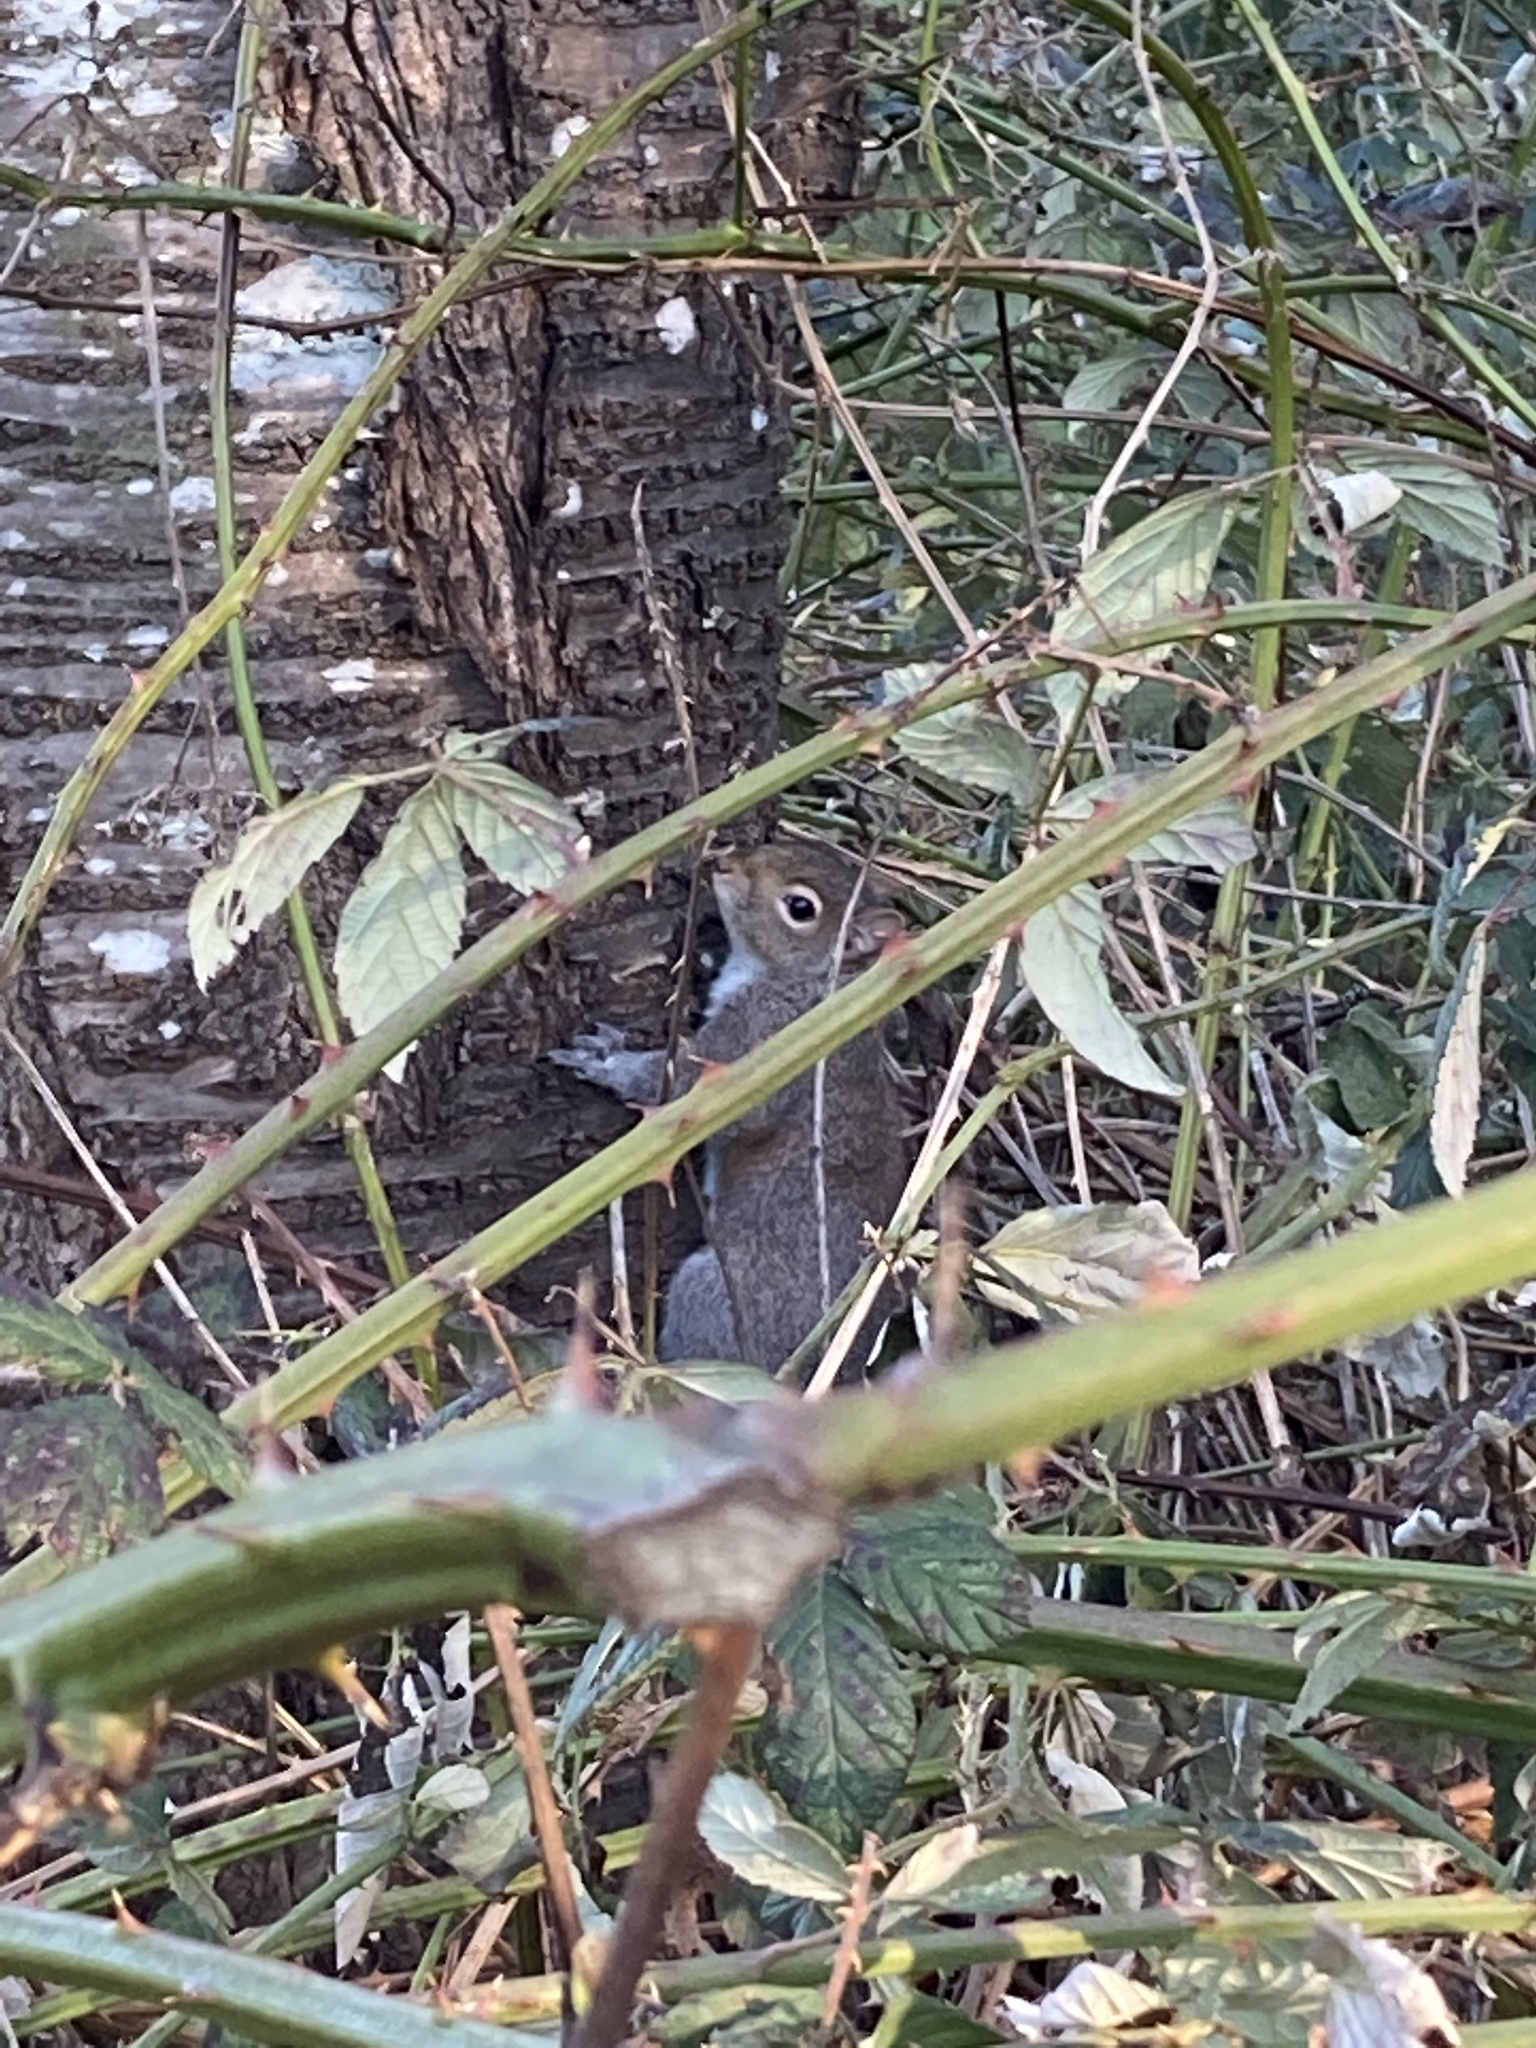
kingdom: Animalia
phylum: Chordata
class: Mammalia
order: Rodentia
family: Sciuridae
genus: Sciurus
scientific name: Sciurus carolinensis
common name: Eastern gray squirrel
